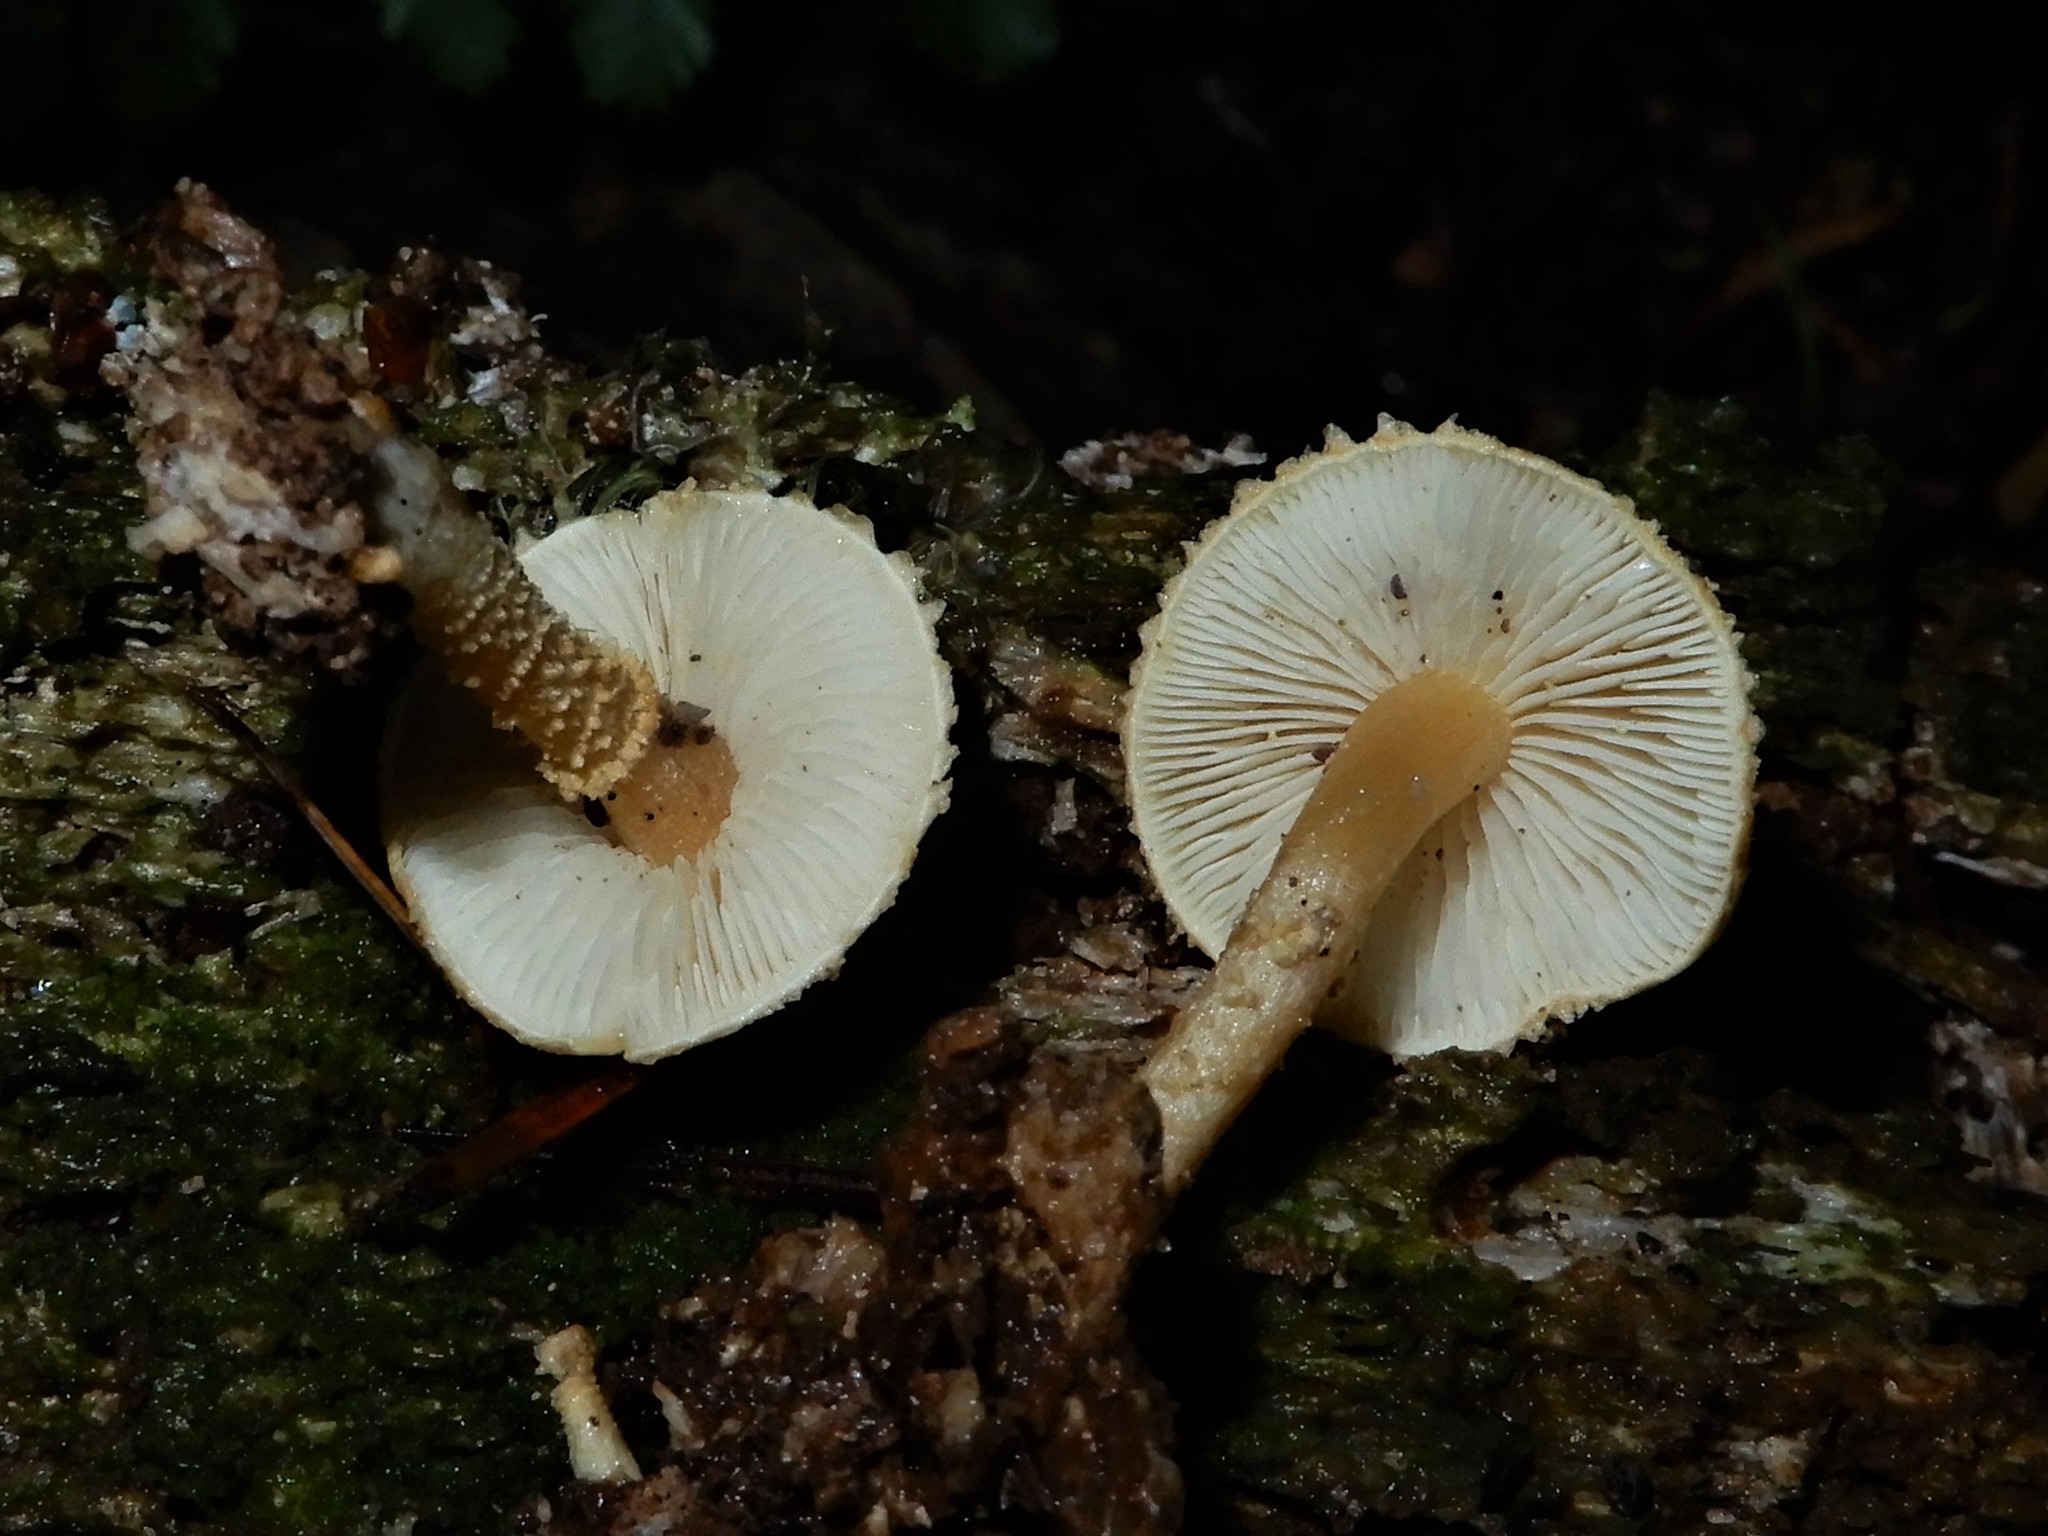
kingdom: Fungi
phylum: Basidiomycota
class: Agaricomycetes
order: Agaricales
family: Tricholomataceae
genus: Cystoderma
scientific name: Cystoderma clastotrichum
